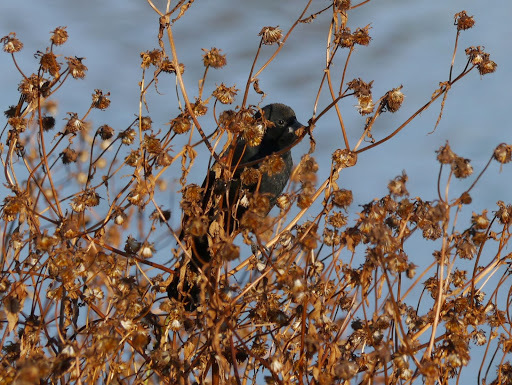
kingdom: Animalia
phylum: Chordata
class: Aves
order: Passeriformes
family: Icteridae
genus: Agelaius
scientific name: Agelaius phoeniceus
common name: Red-winged blackbird
